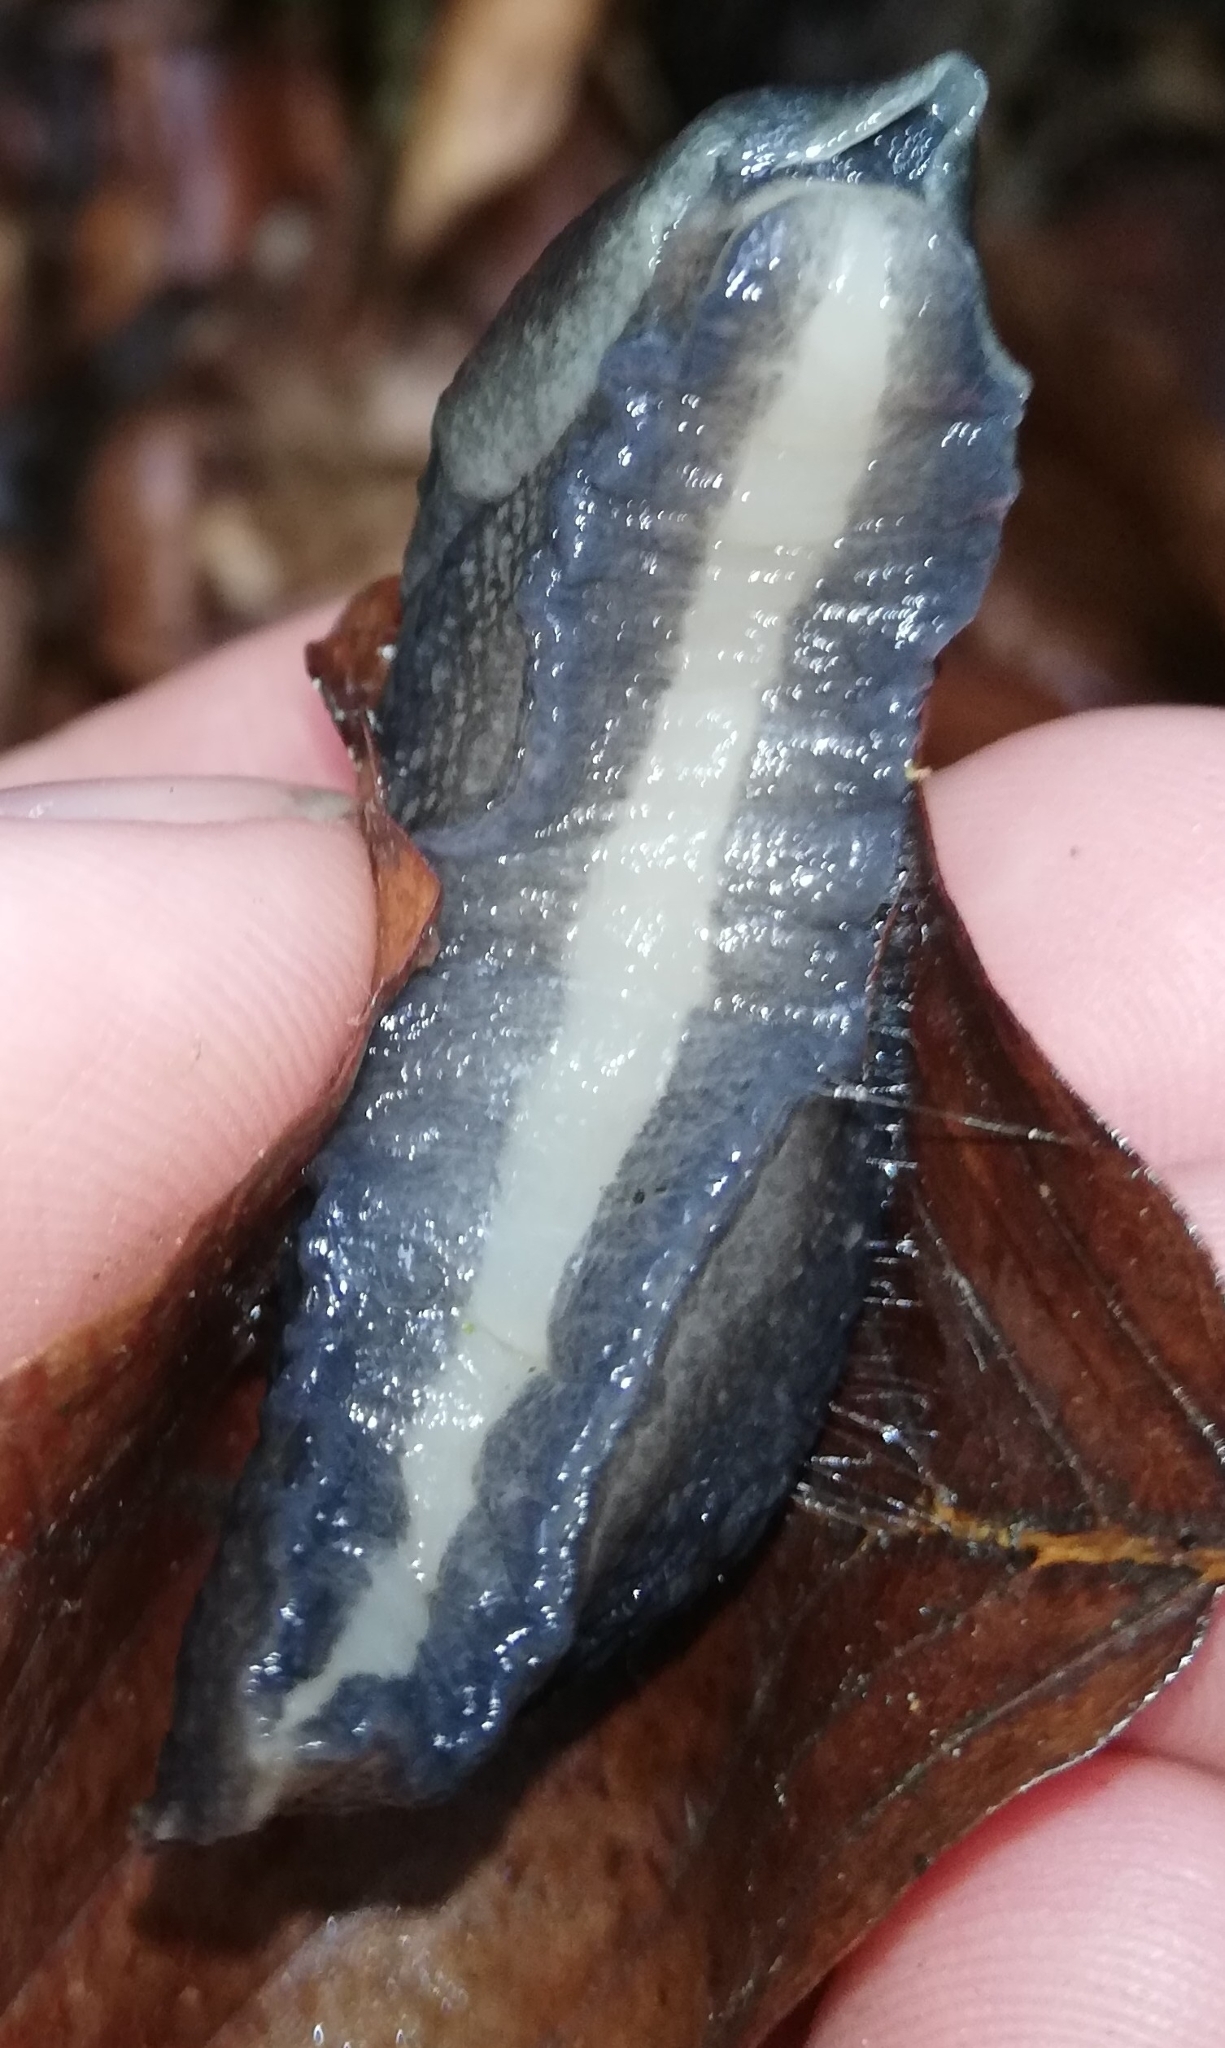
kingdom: Animalia
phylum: Mollusca
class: Gastropoda
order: Stylommatophora
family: Limacidae
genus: Limax
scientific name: Limax cinereoniger
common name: Ash-black slug
